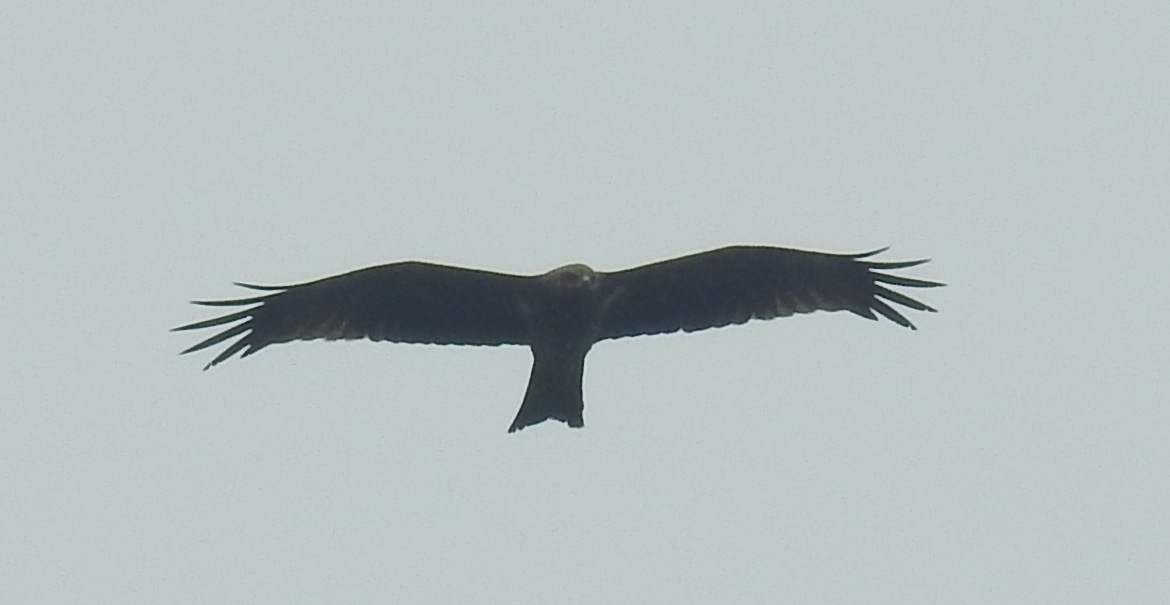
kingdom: Animalia
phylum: Chordata
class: Aves
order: Accipitriformes
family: Accipitridae
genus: Milvus
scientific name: Milvus migrans
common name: Black kite
